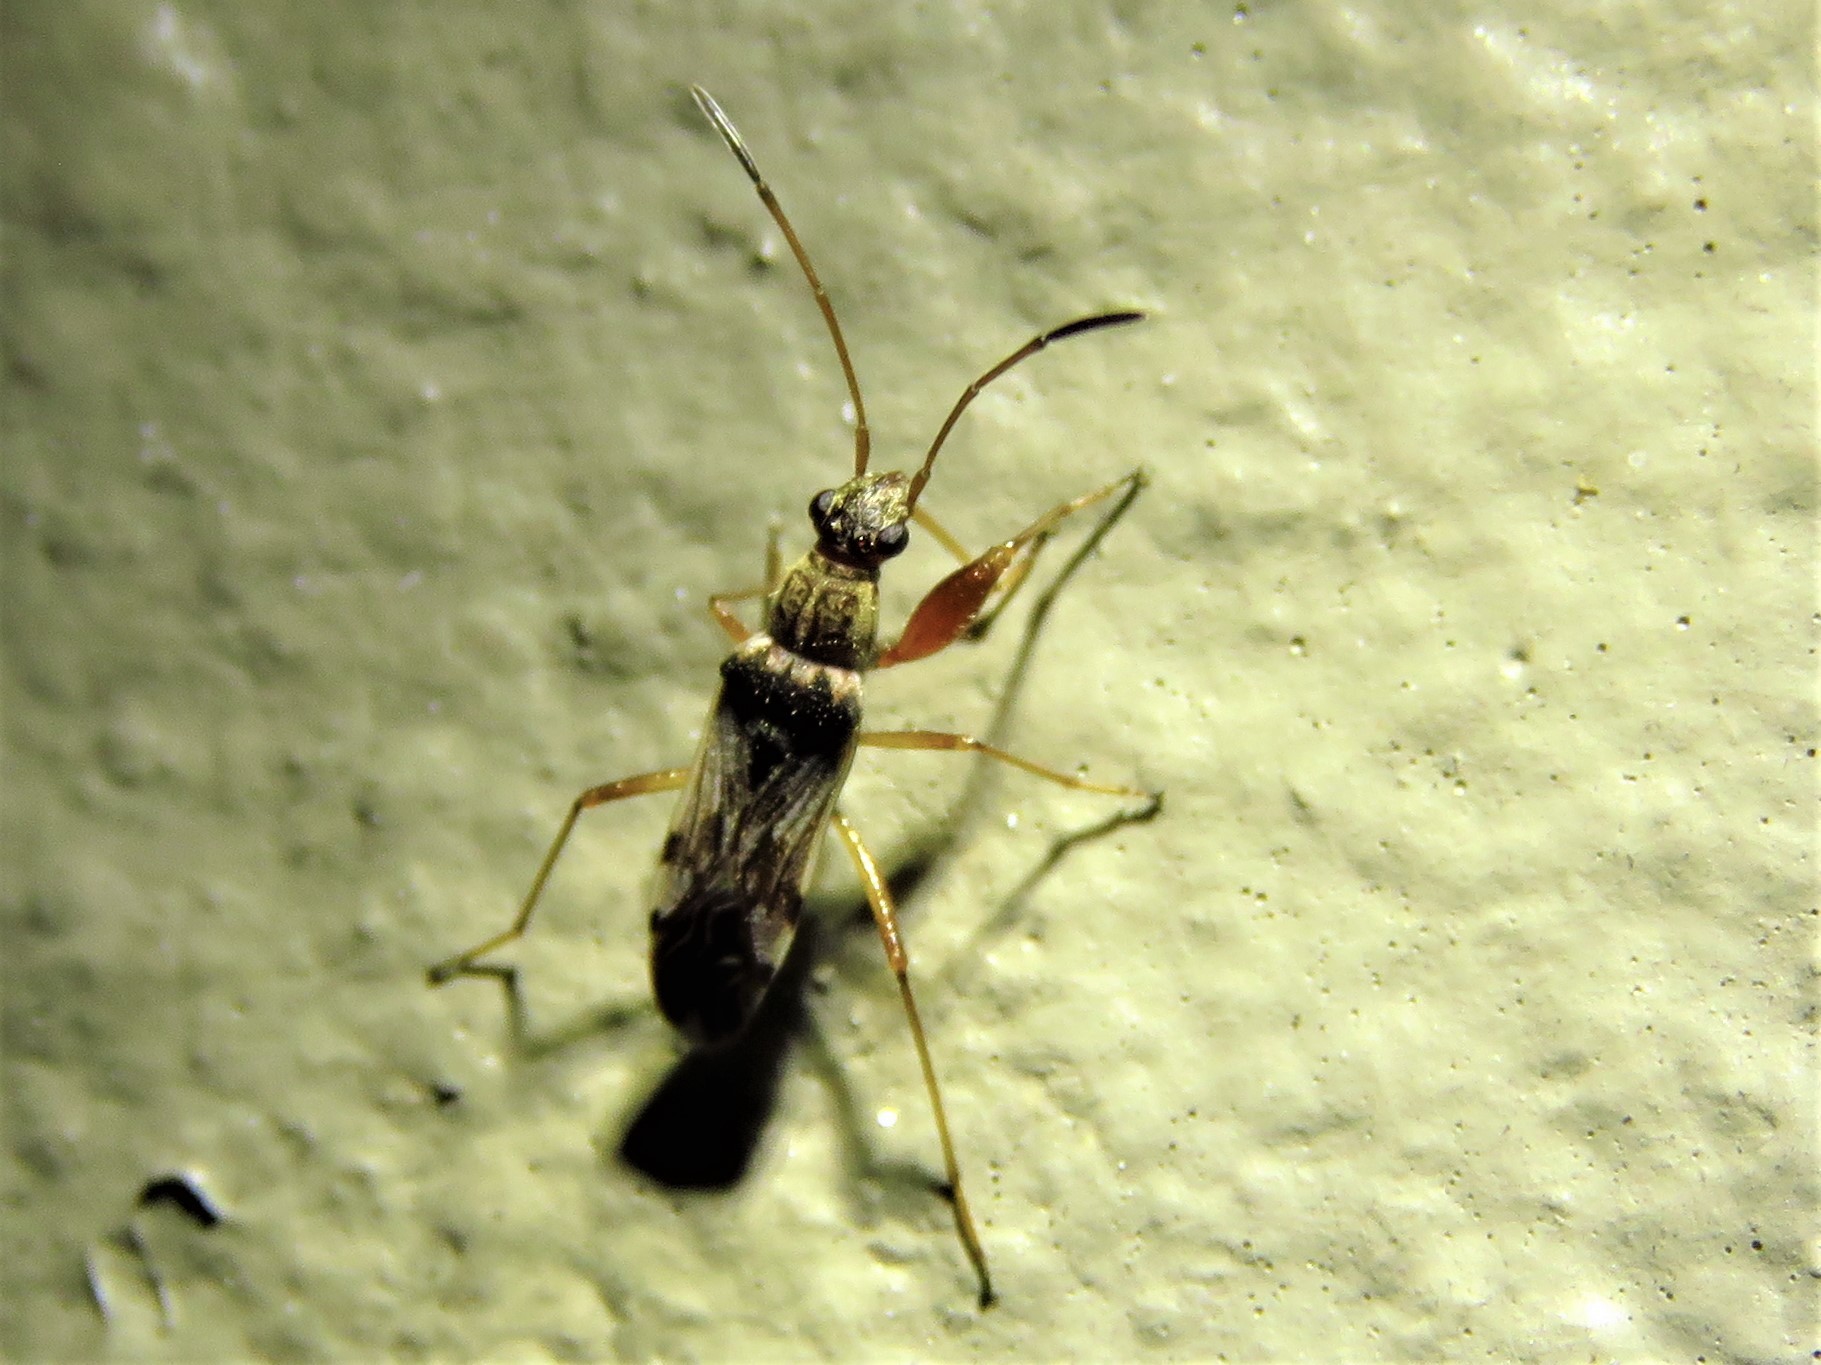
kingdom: Animalia
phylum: Arthropoda
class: Insecta
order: Hemiptera
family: Rhyparochromidae
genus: Neopamera
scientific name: Neopamera bilobata
